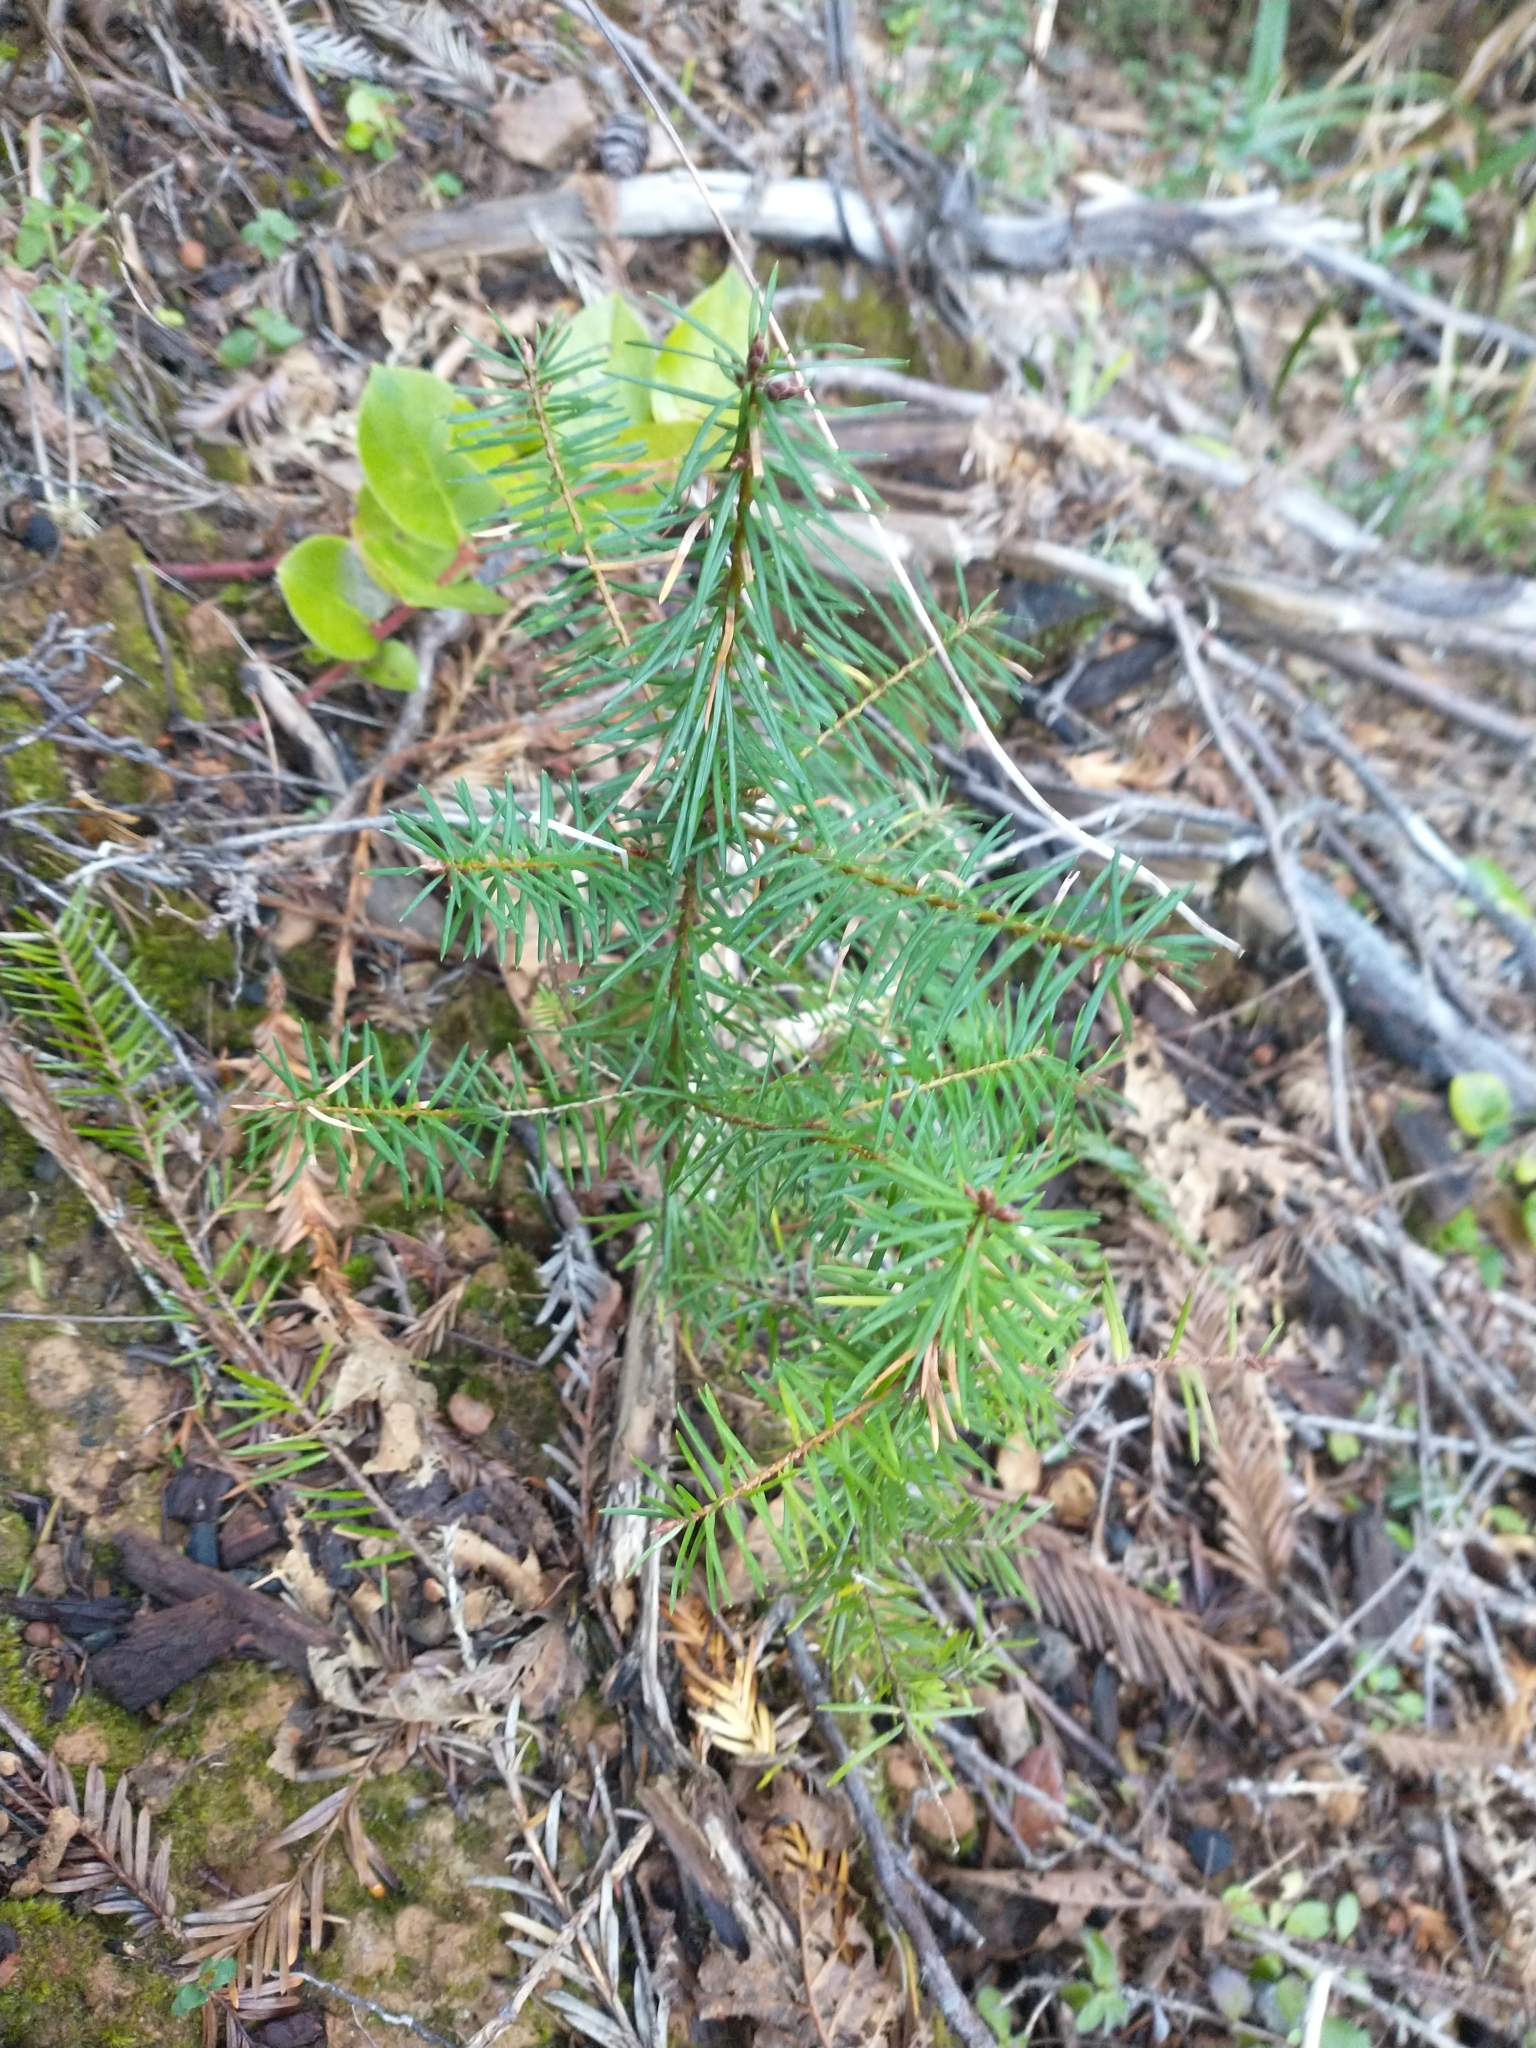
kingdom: Plantae
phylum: Tracheophyta
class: Pinopsida
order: Pinales
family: Pinaceae
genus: Pseudotsuga
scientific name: Pseudotsuga menziesii
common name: Douglas fir
